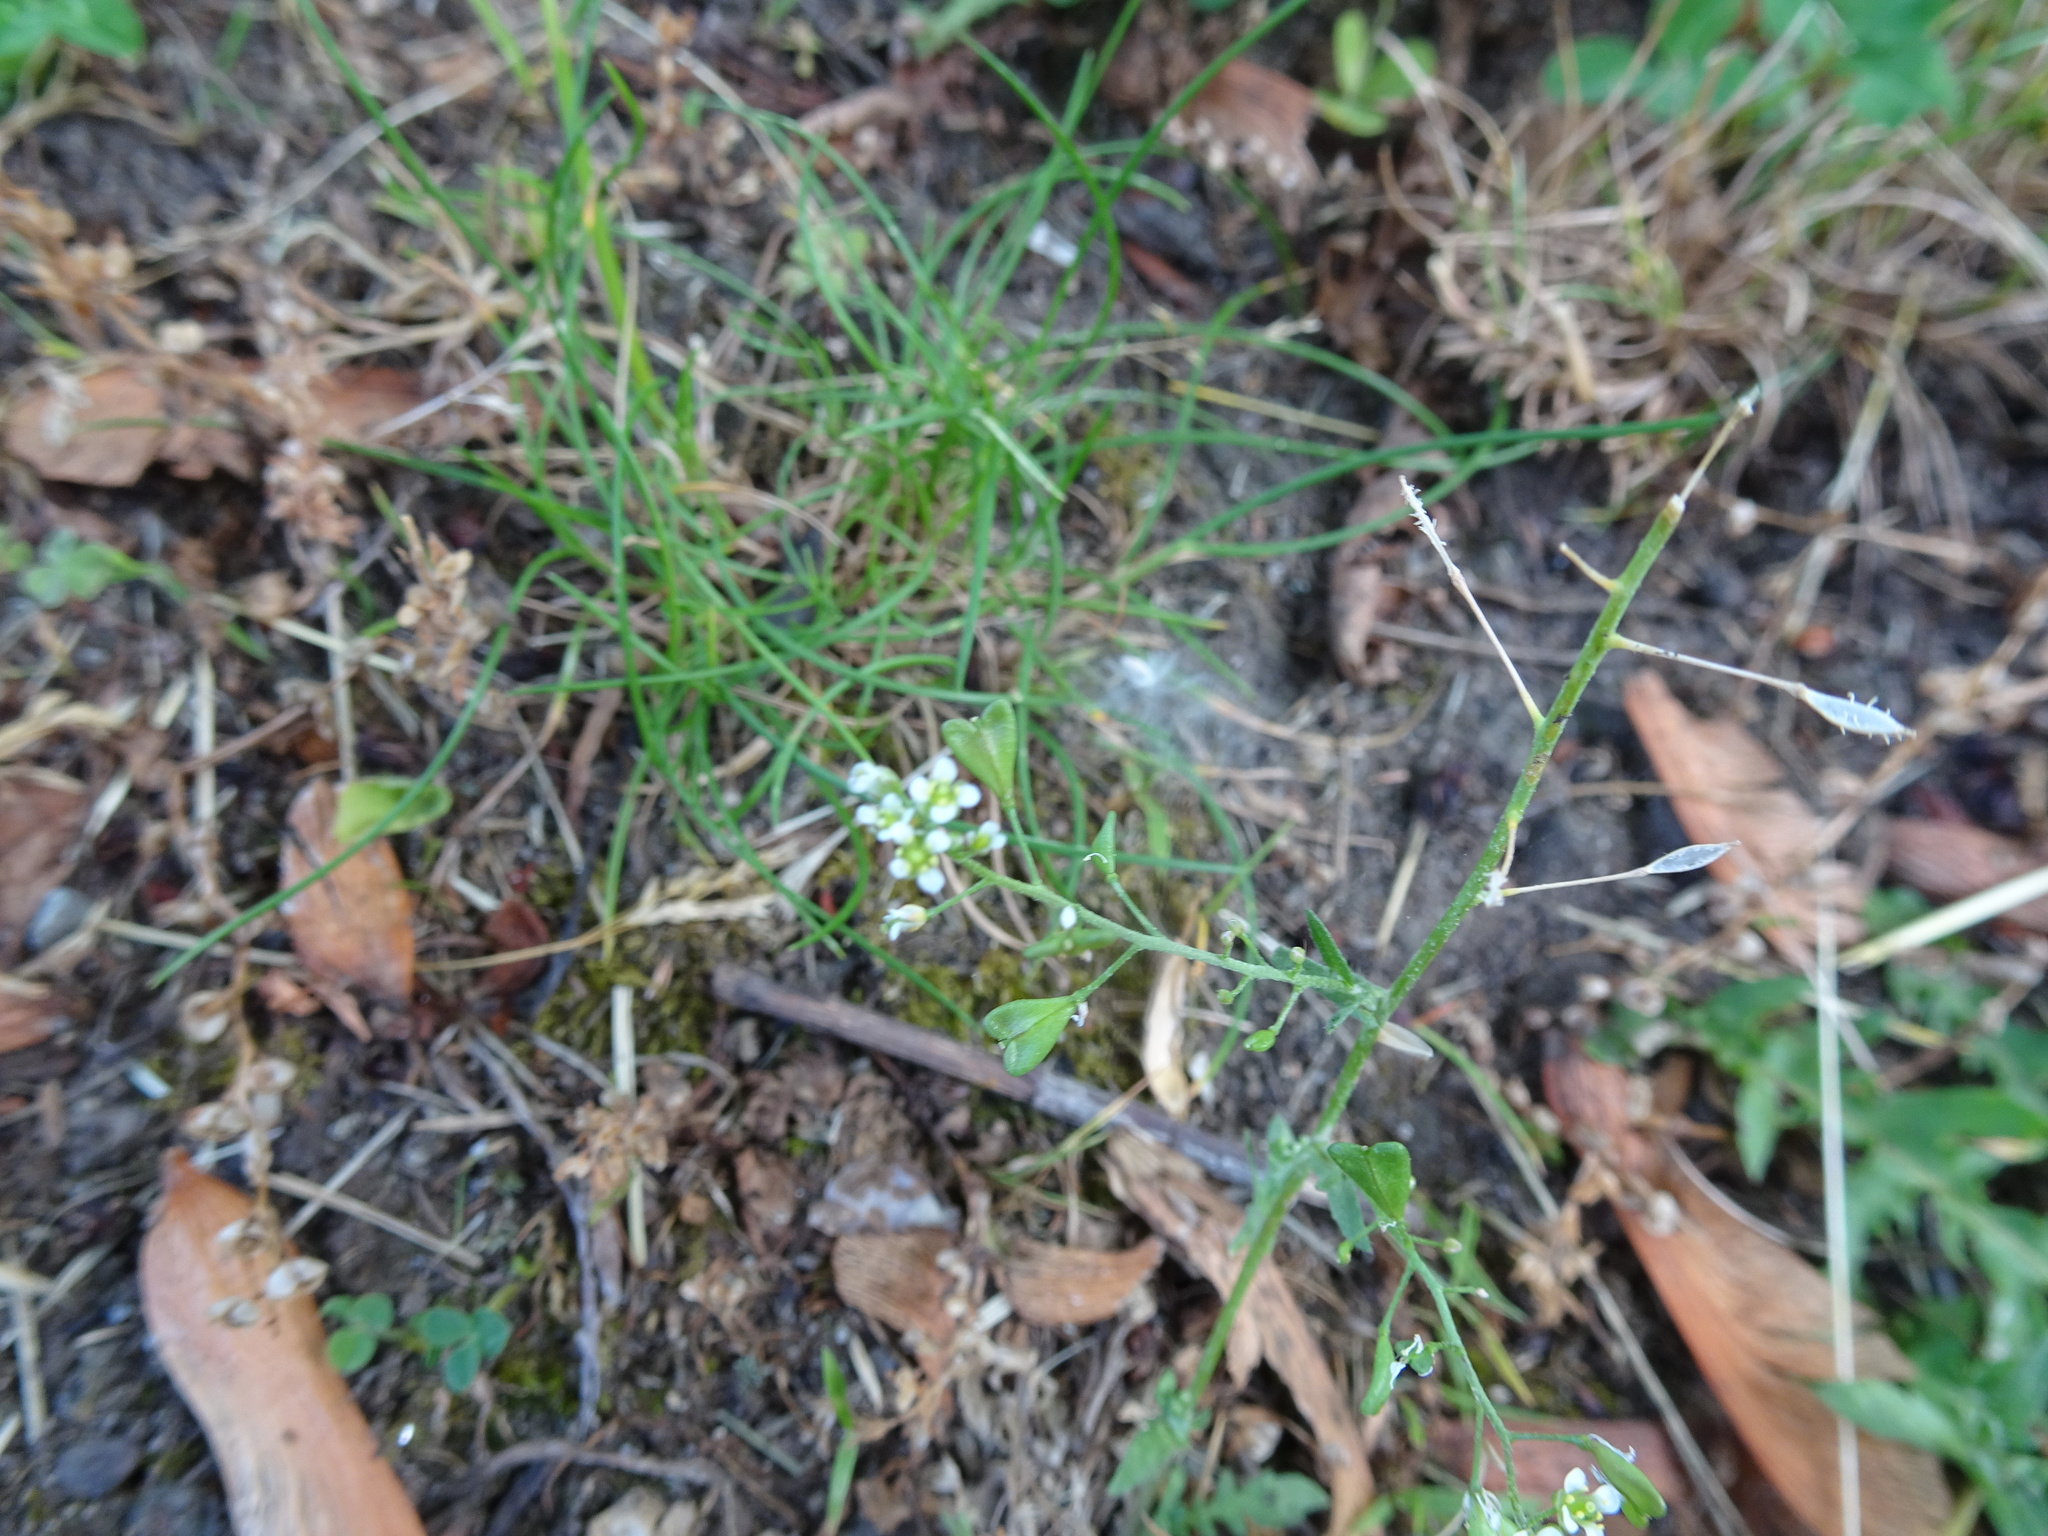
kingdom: Plantae
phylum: Tracheophyta
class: Magnoliopsida
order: Brassicales
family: Brassicaceae
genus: Capsella
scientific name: Capsella bursa-pastoris
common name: Shepherd's purse
